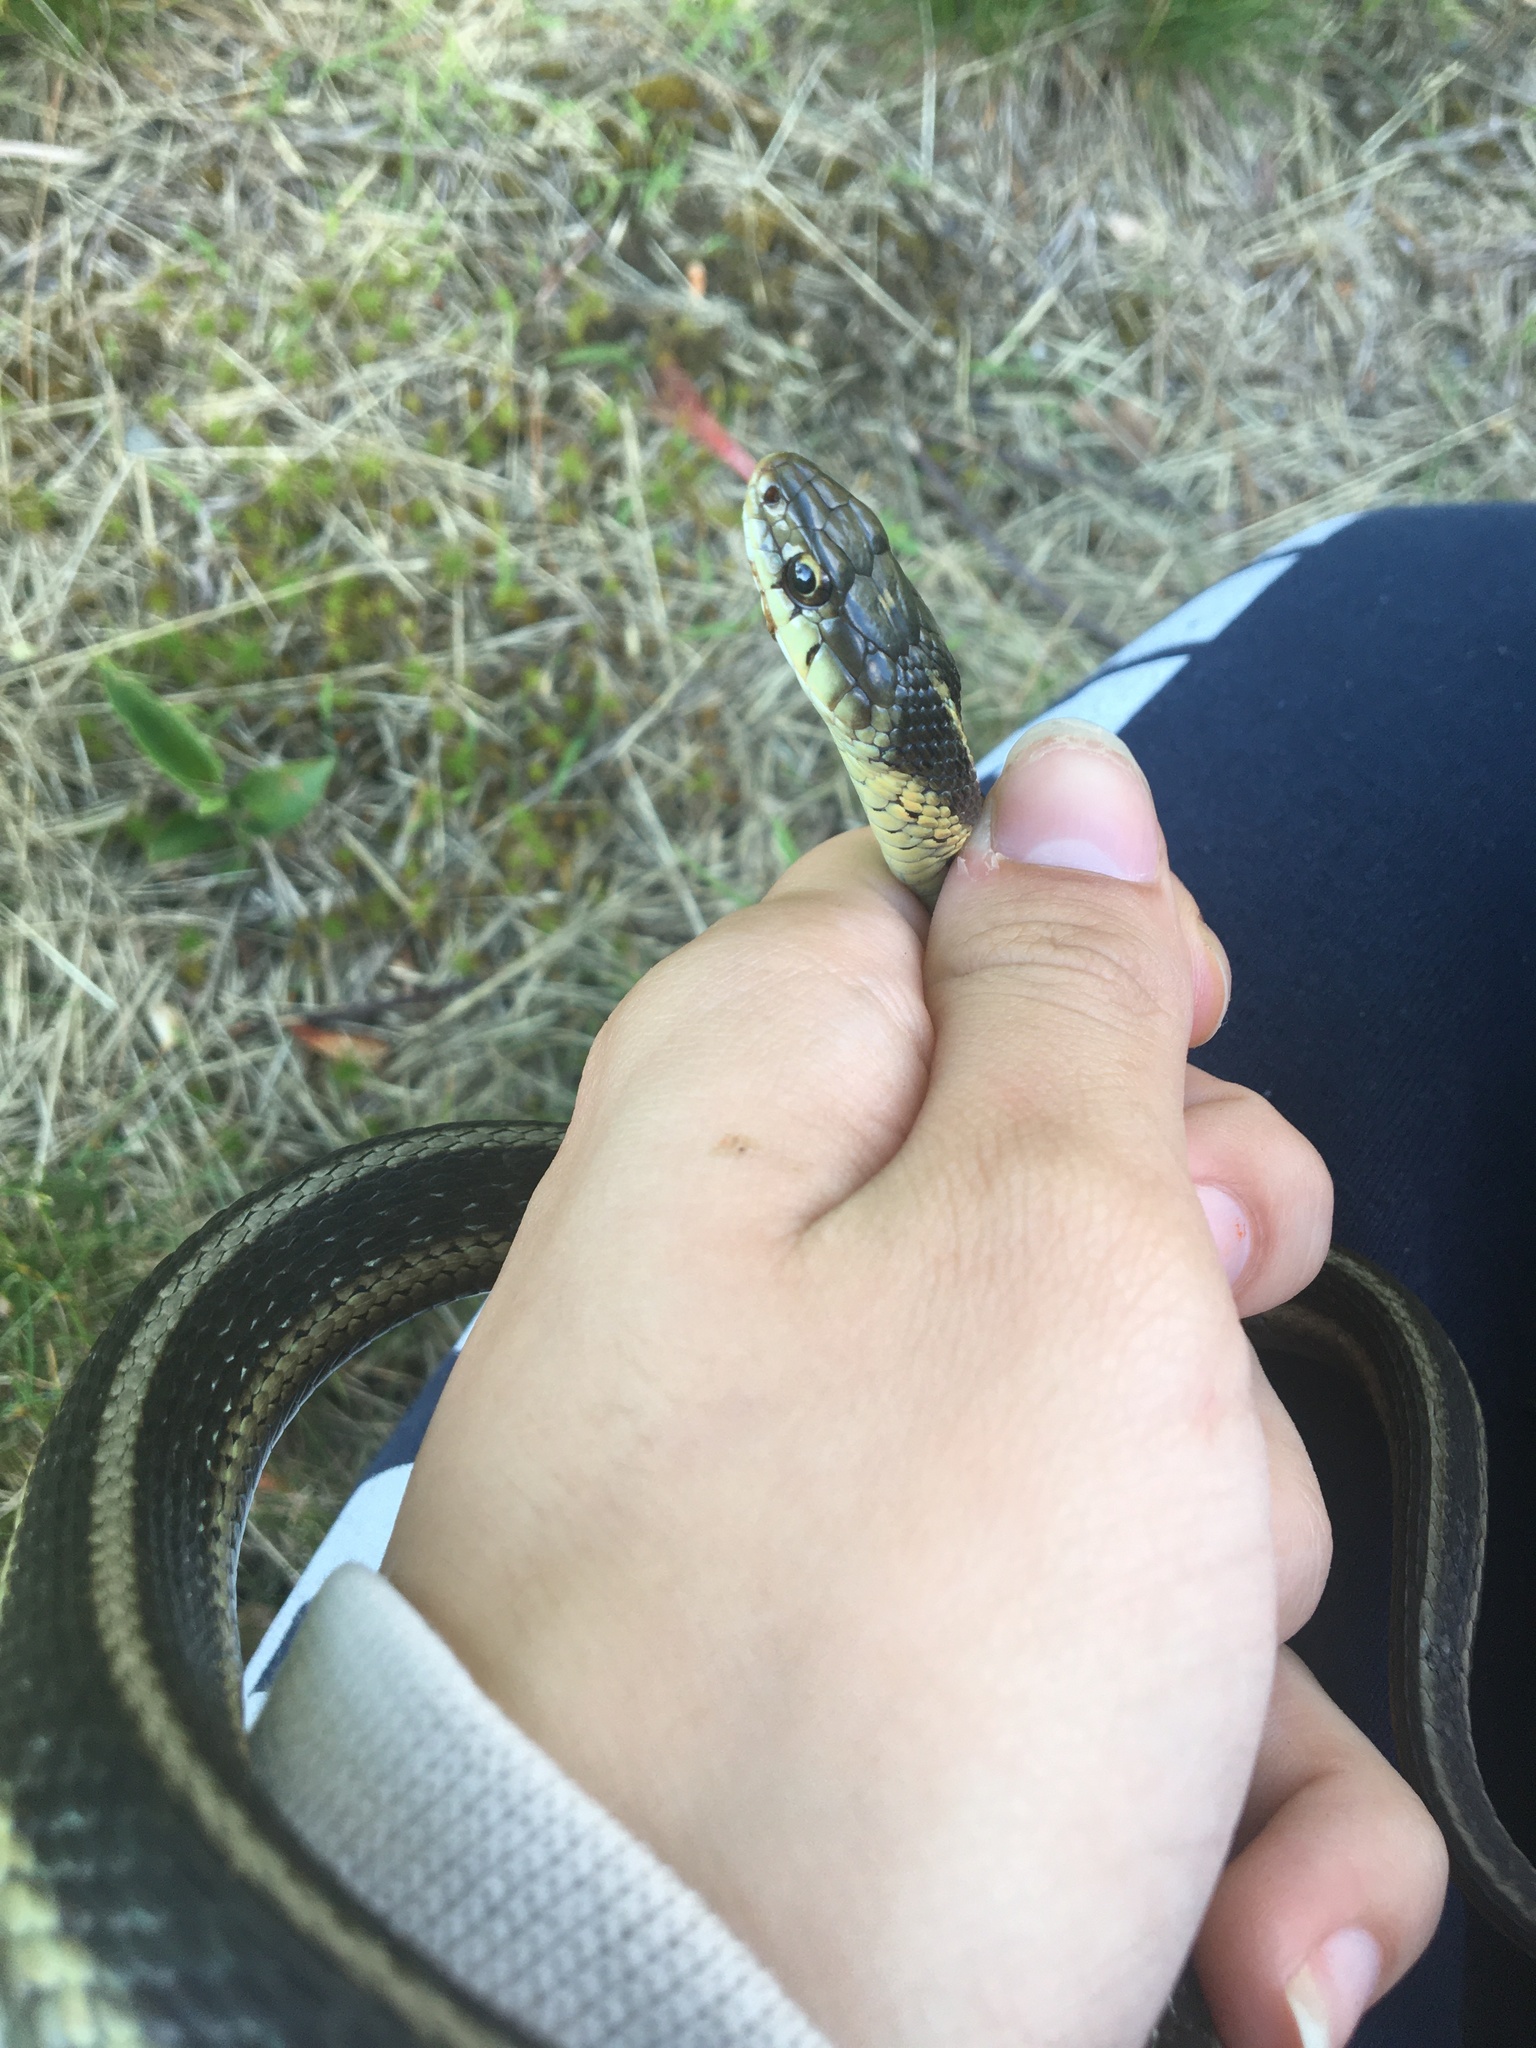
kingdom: Animalia
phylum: Chordata
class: Squamata
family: Colubridae
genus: Thamnophis
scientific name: Thamnophis sirtalis
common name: Common garter snake
